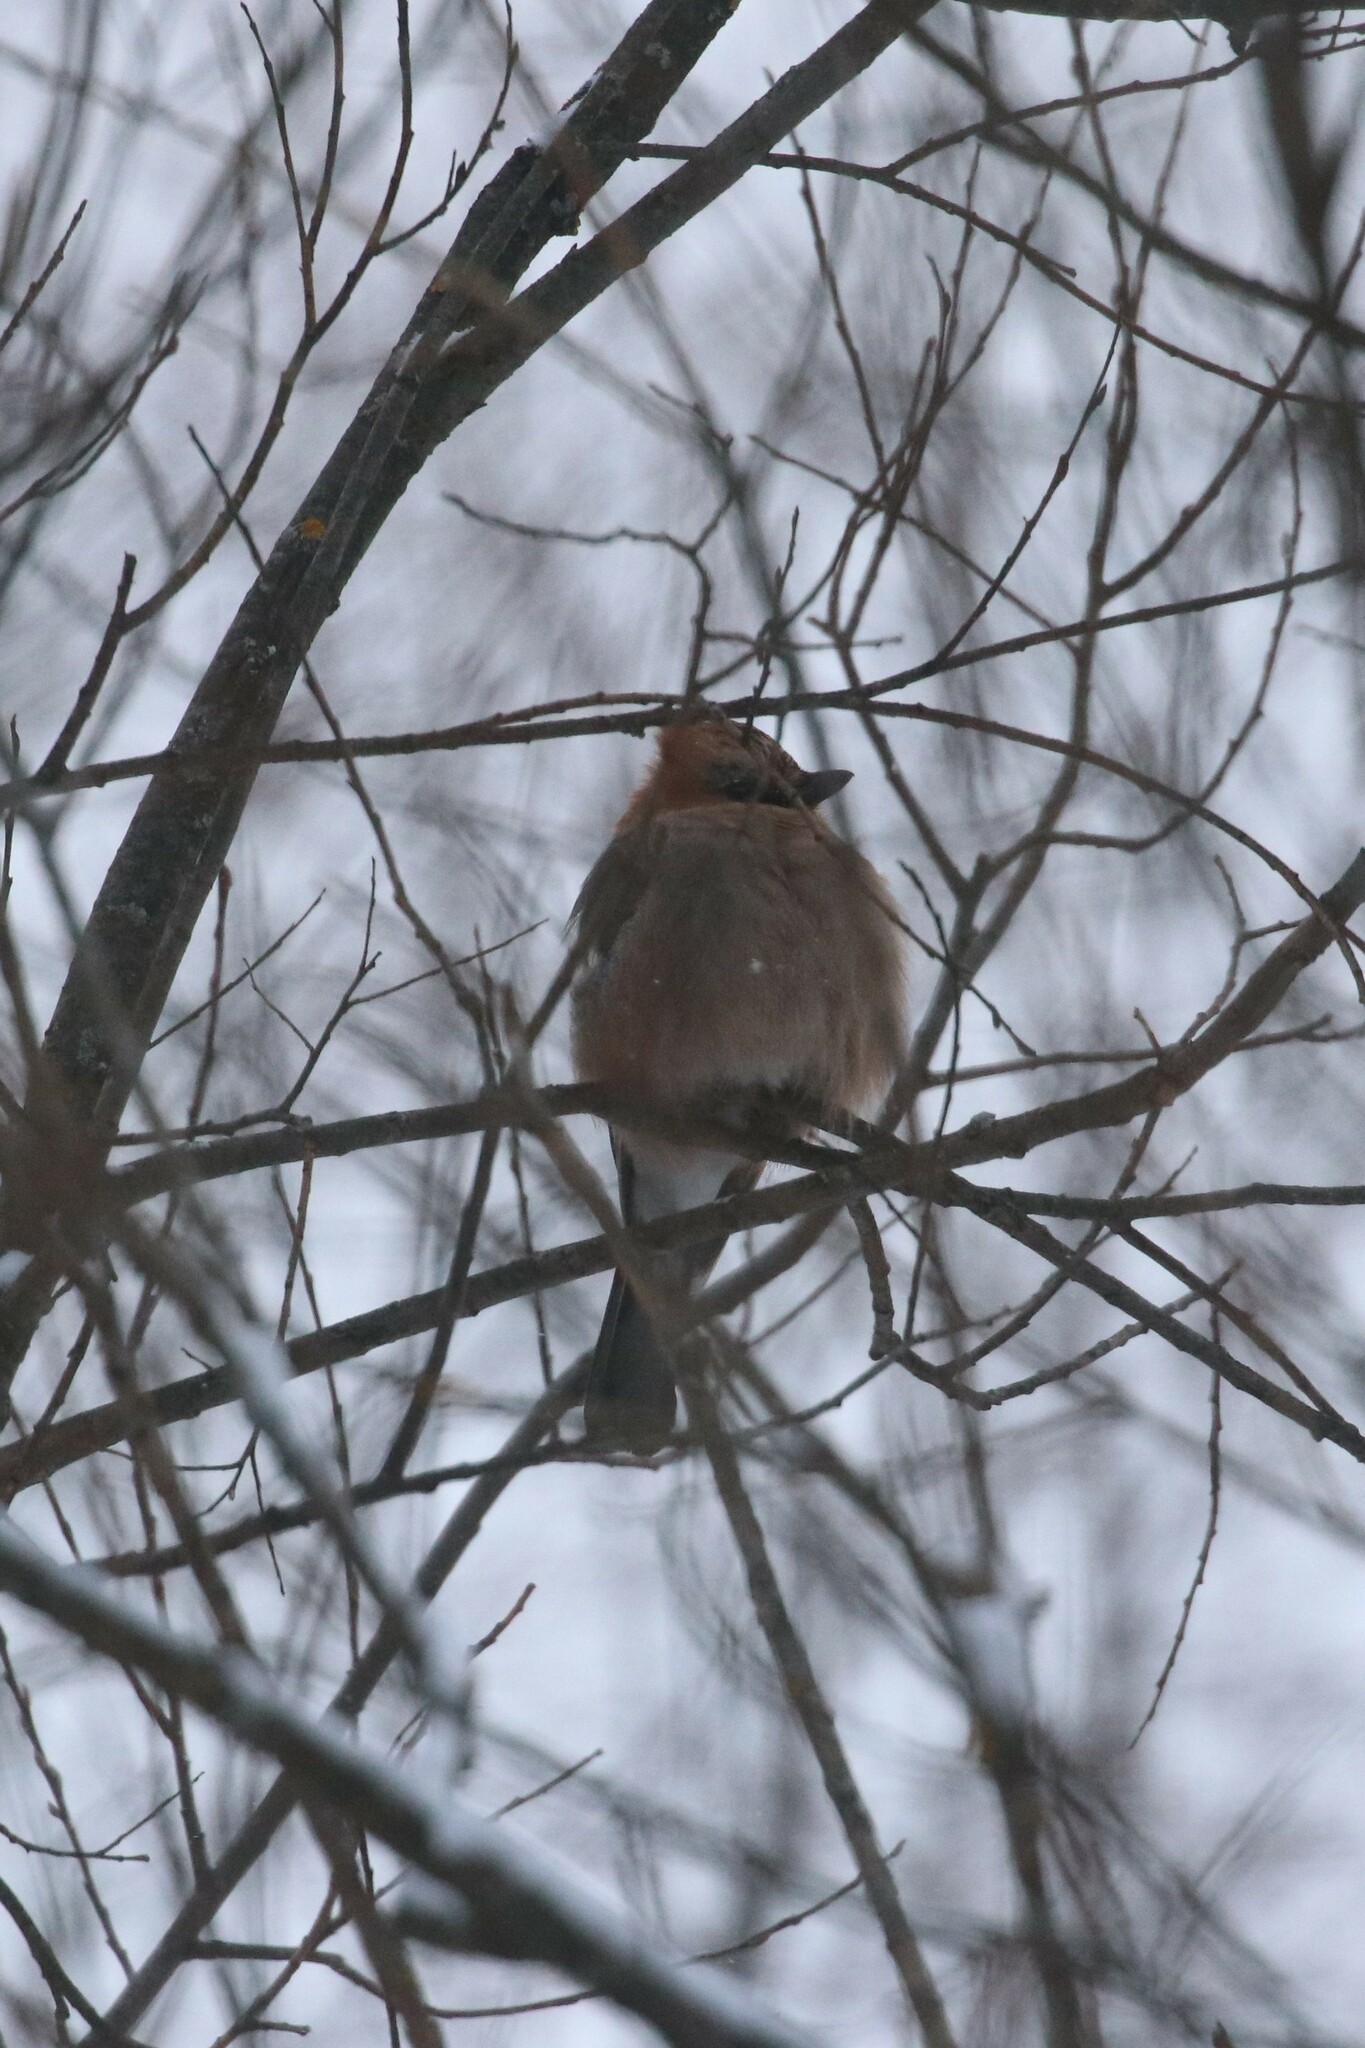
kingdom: Animalia
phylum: Chordata
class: Aves
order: Passeriformes
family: Corvidae
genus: Garrulus
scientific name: Garrulus glandarius
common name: Eurasian jay
